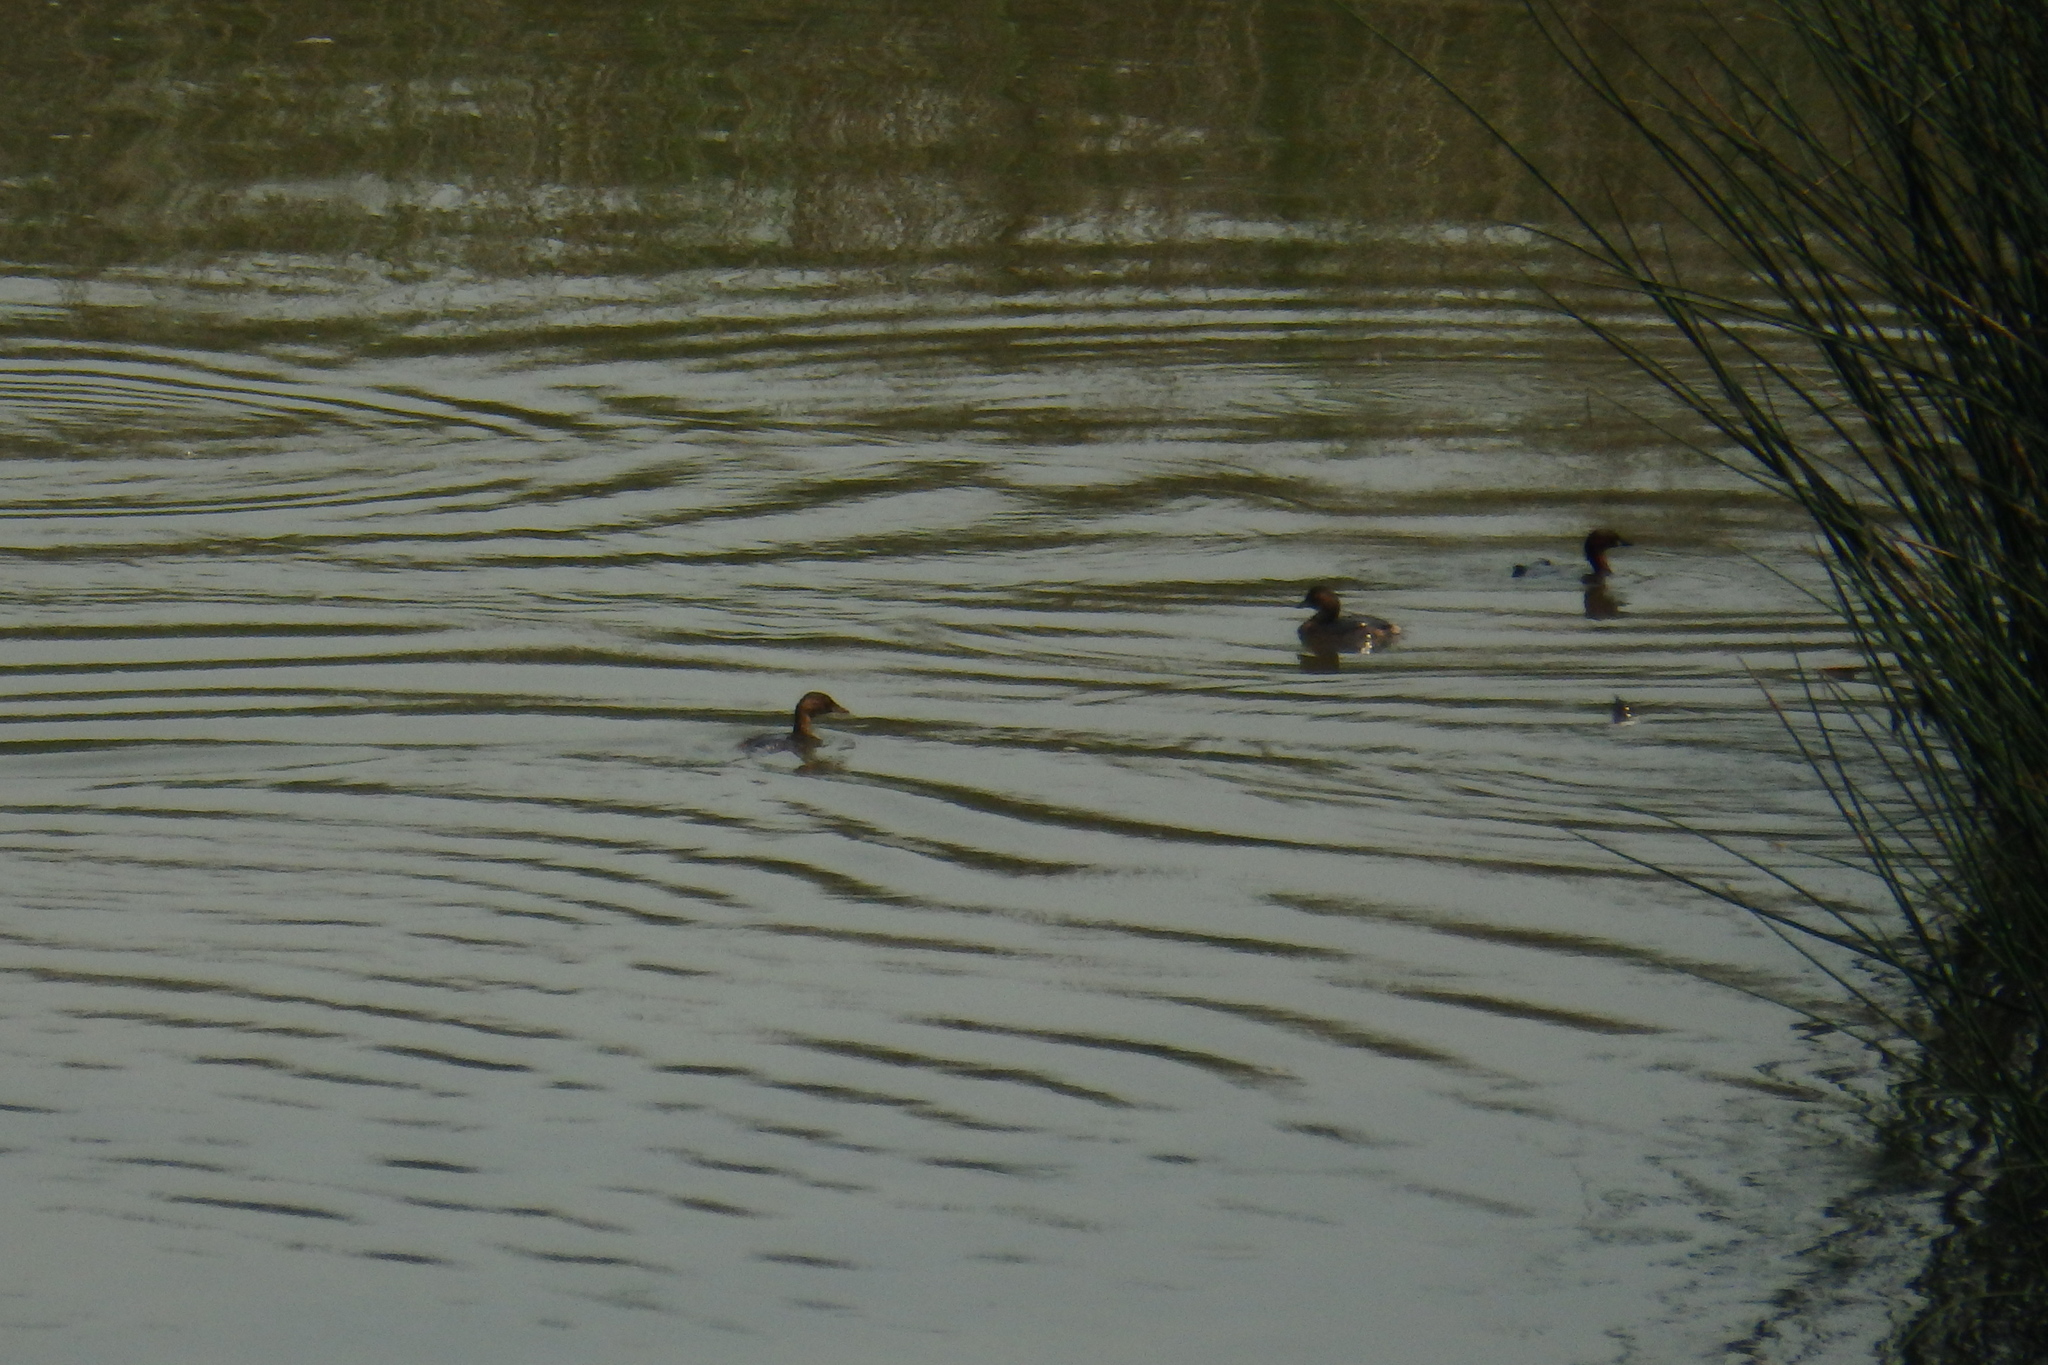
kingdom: Animalia
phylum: Chordata
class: Aves
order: Podicipediformes
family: Podicipedidae
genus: Tachybaptus
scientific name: Tachybaptus ruficollis
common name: Little grebe
